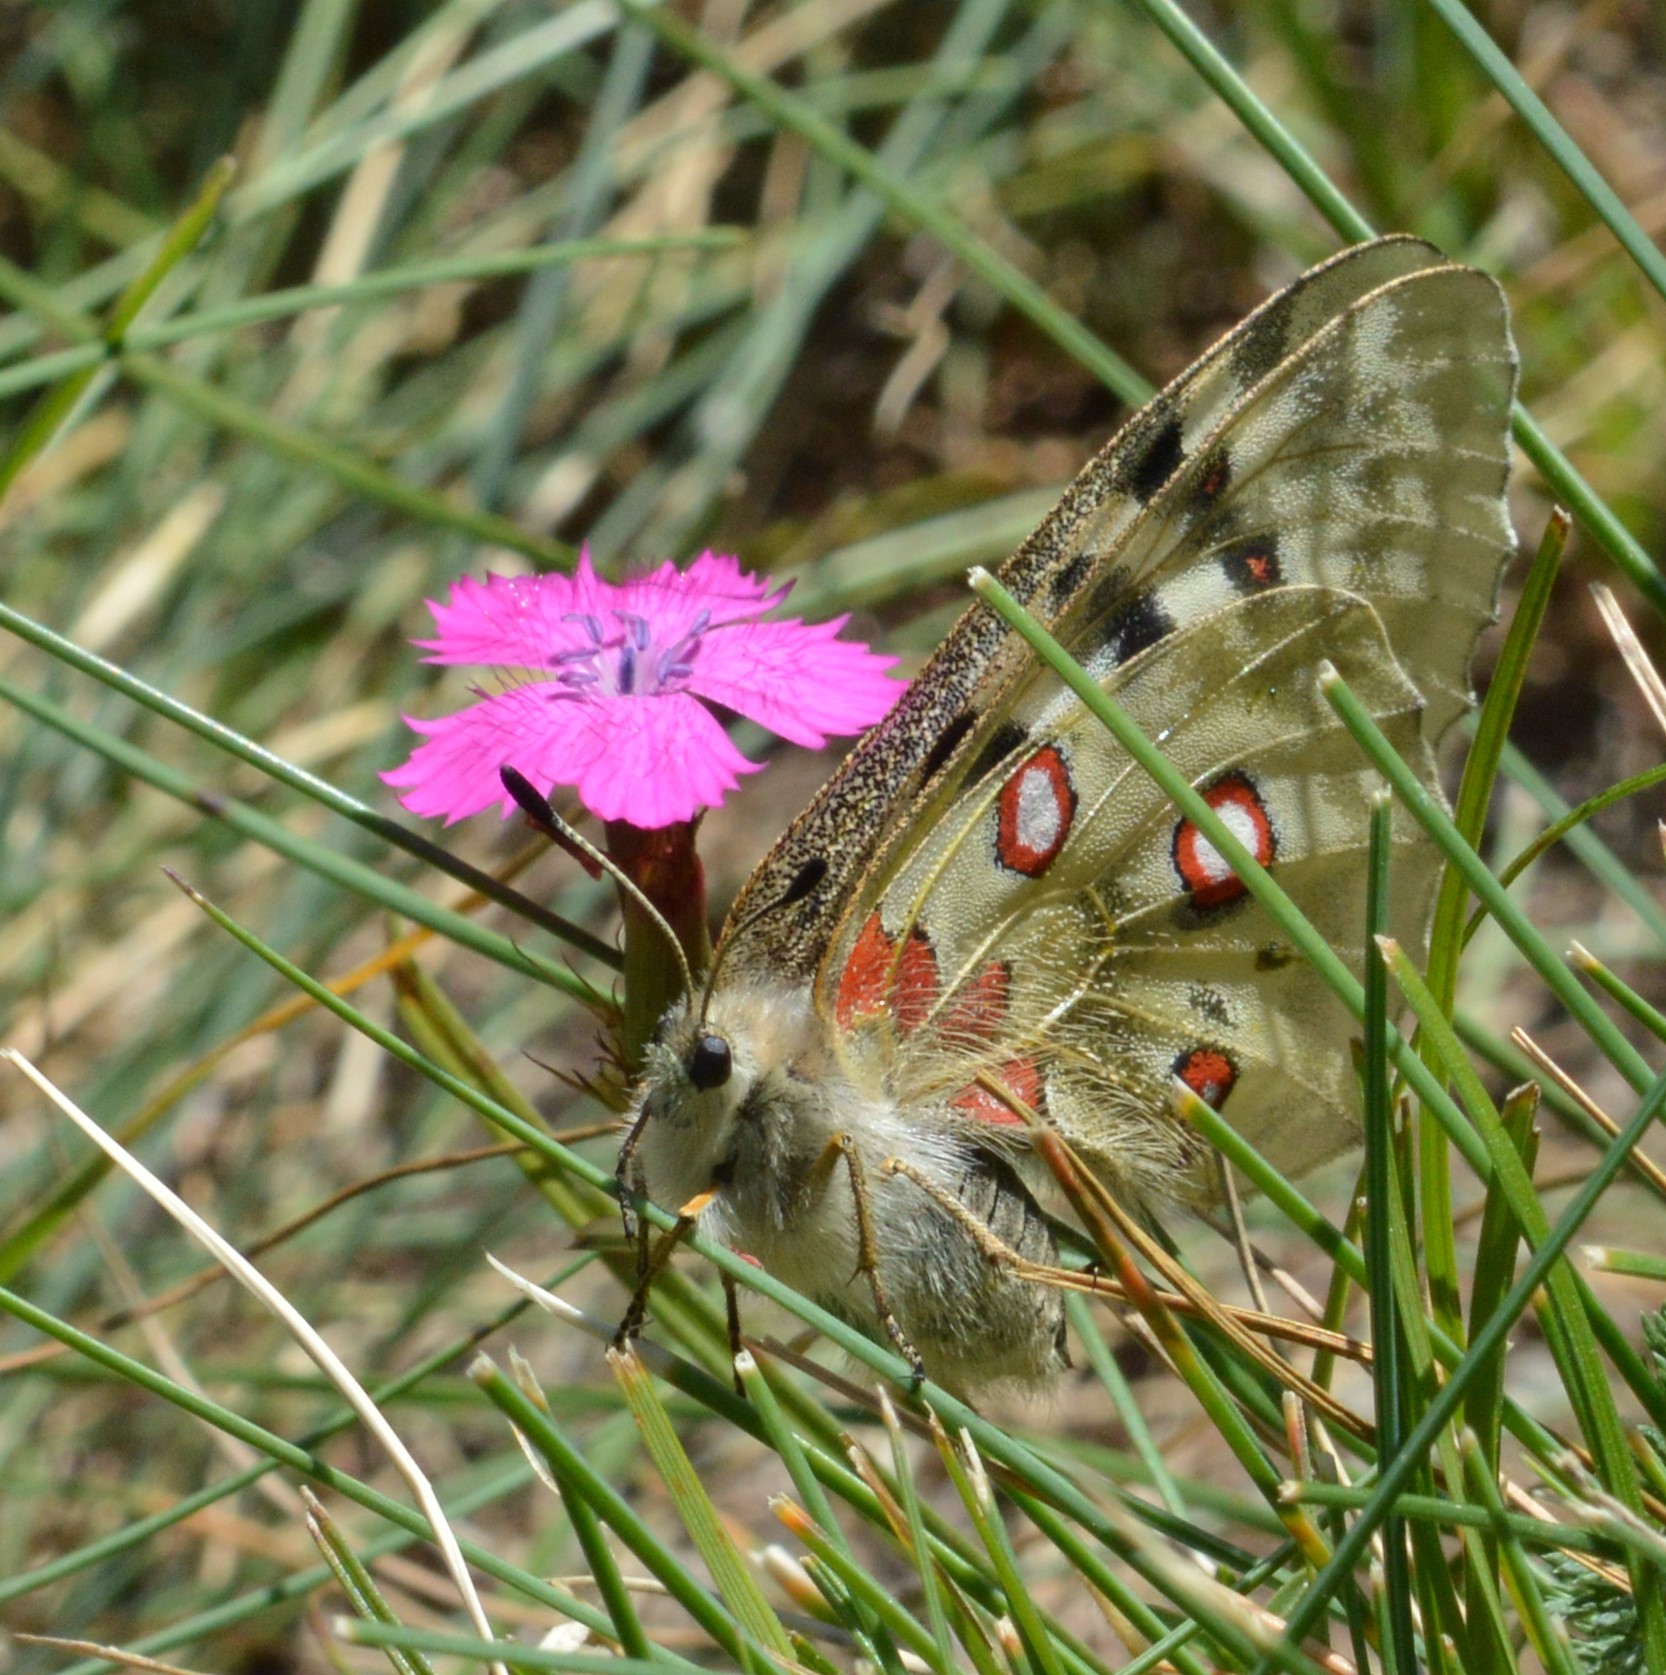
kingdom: Animalia
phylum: Arthropoda
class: Insecta
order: Lepidoptera
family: Papilionidae
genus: Parnassius
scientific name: Parnassius apollo
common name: Apollo
